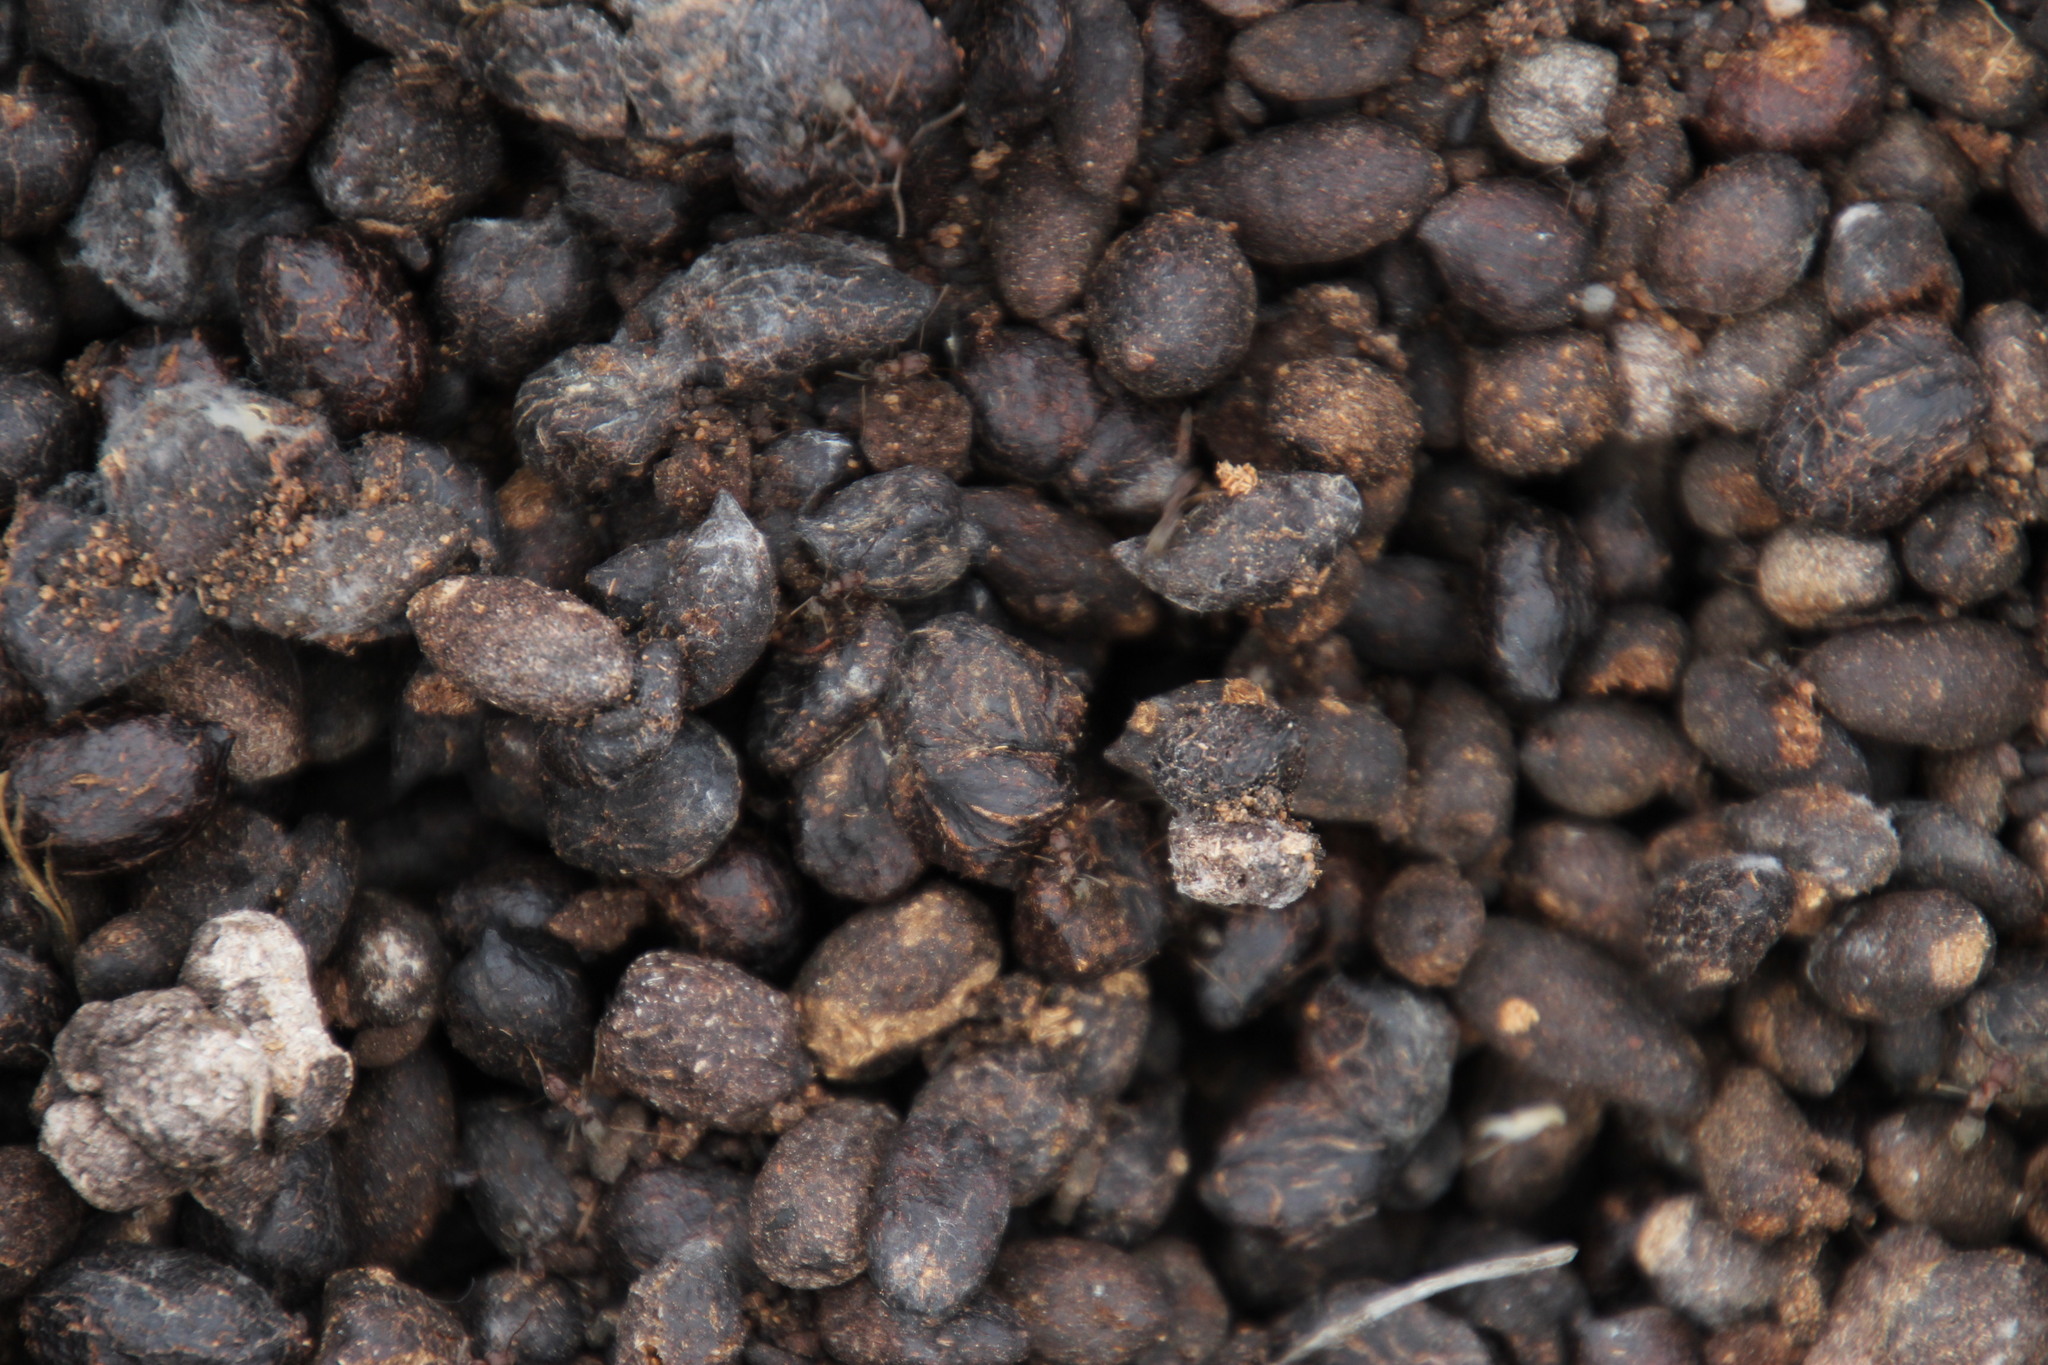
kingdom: Animalia
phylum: Chordata
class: Mammalia
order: Artiodactyla
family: Bovidae
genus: Oreotragus
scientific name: Oreotragus oreotragus
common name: Klipspringer
